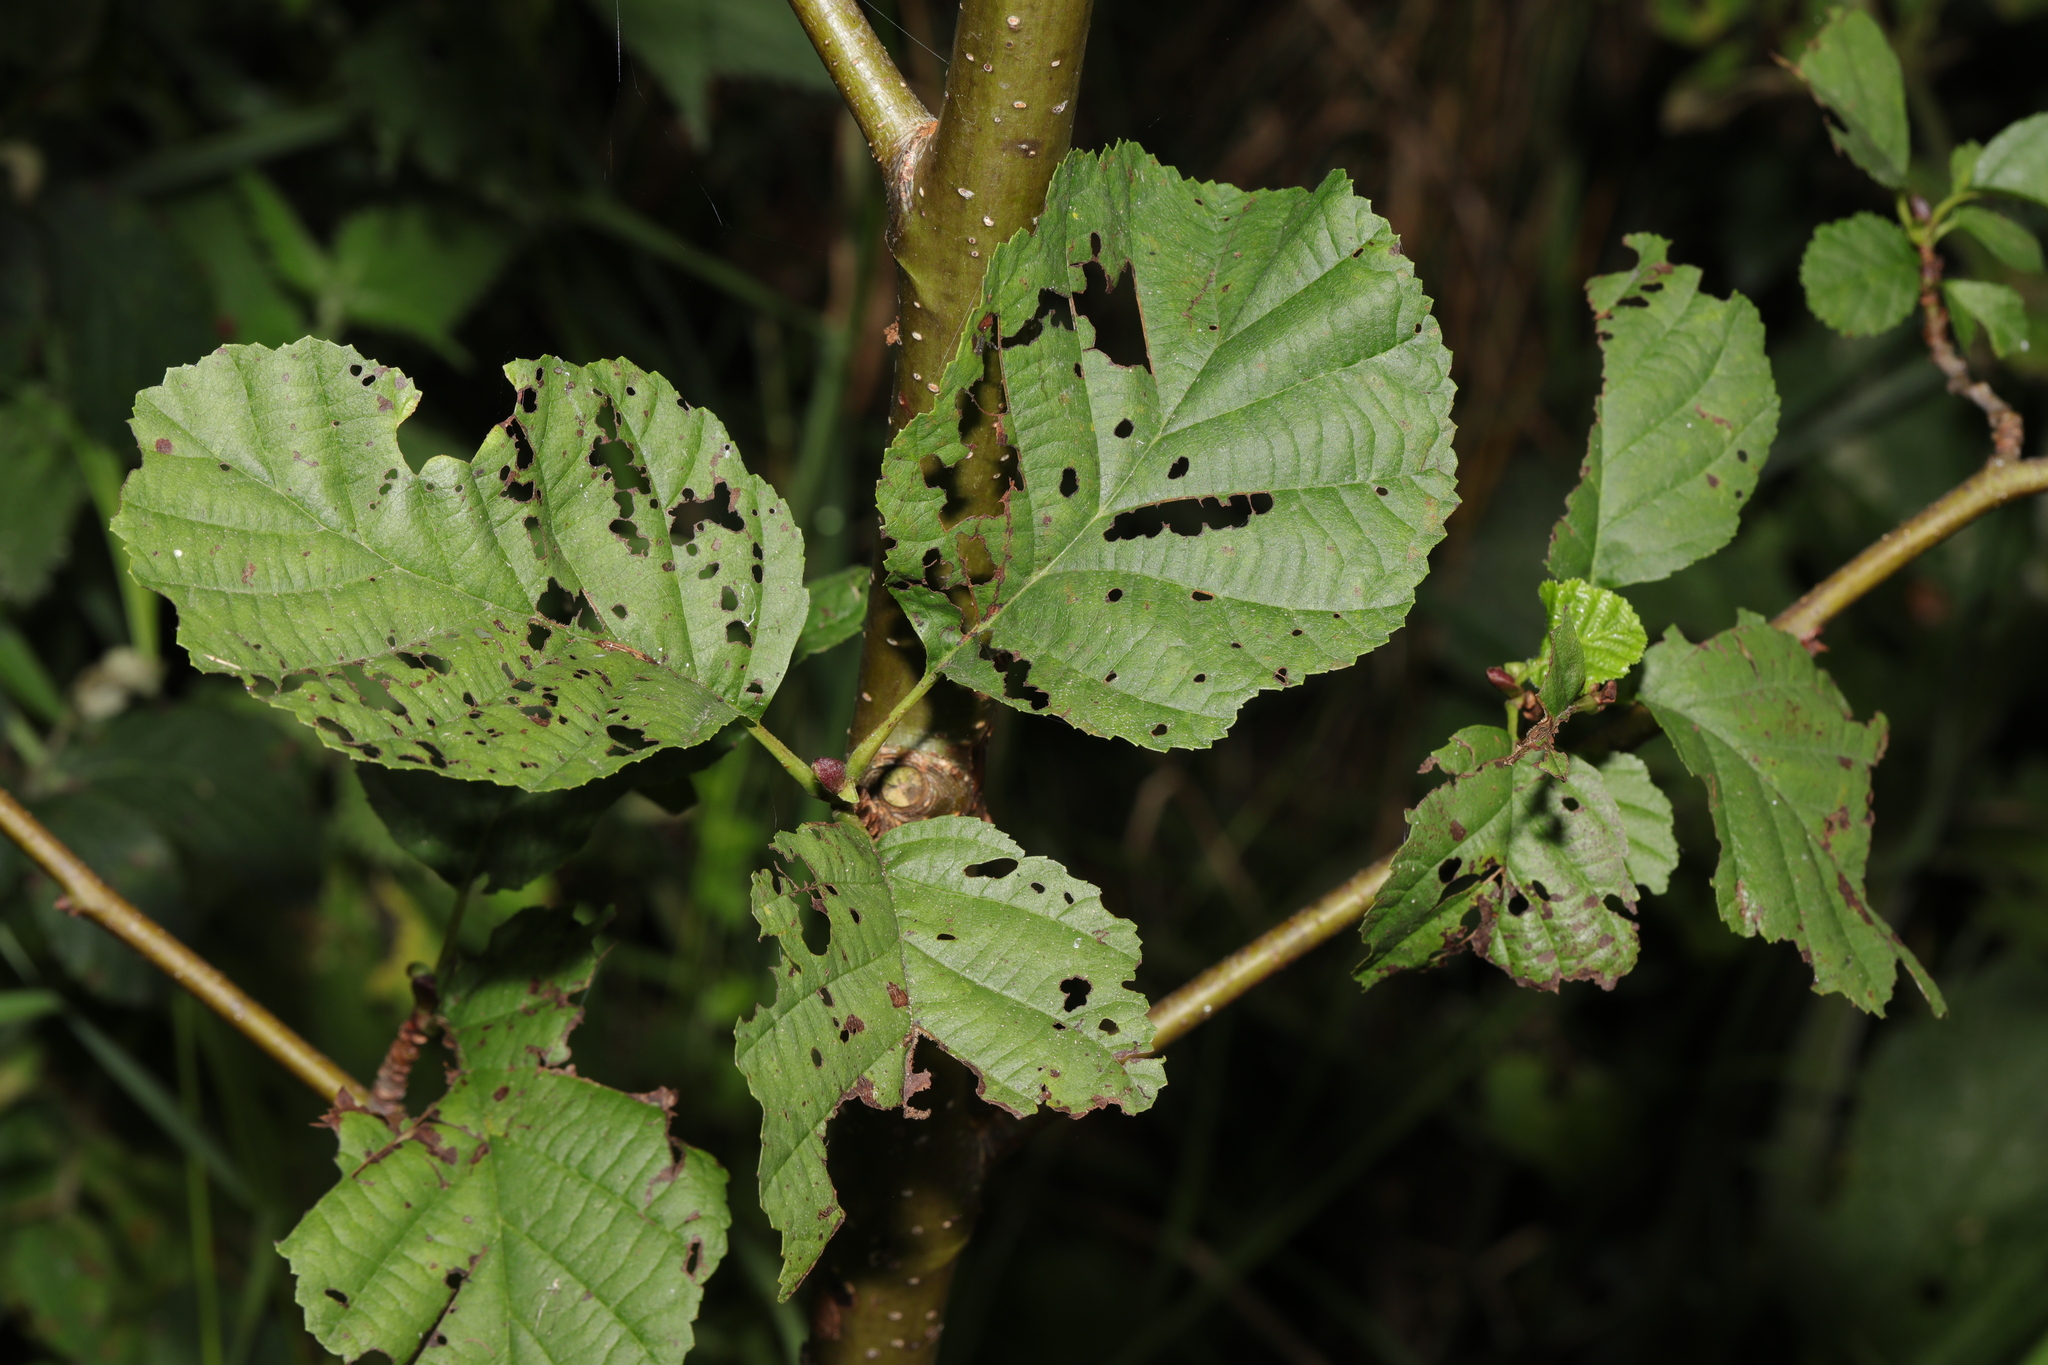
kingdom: Plantae
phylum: Tracheophyta
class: Magnoliopsida
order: Fagales
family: Betulaceae
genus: Alnus
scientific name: Alnus glutinosa
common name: Black alder
